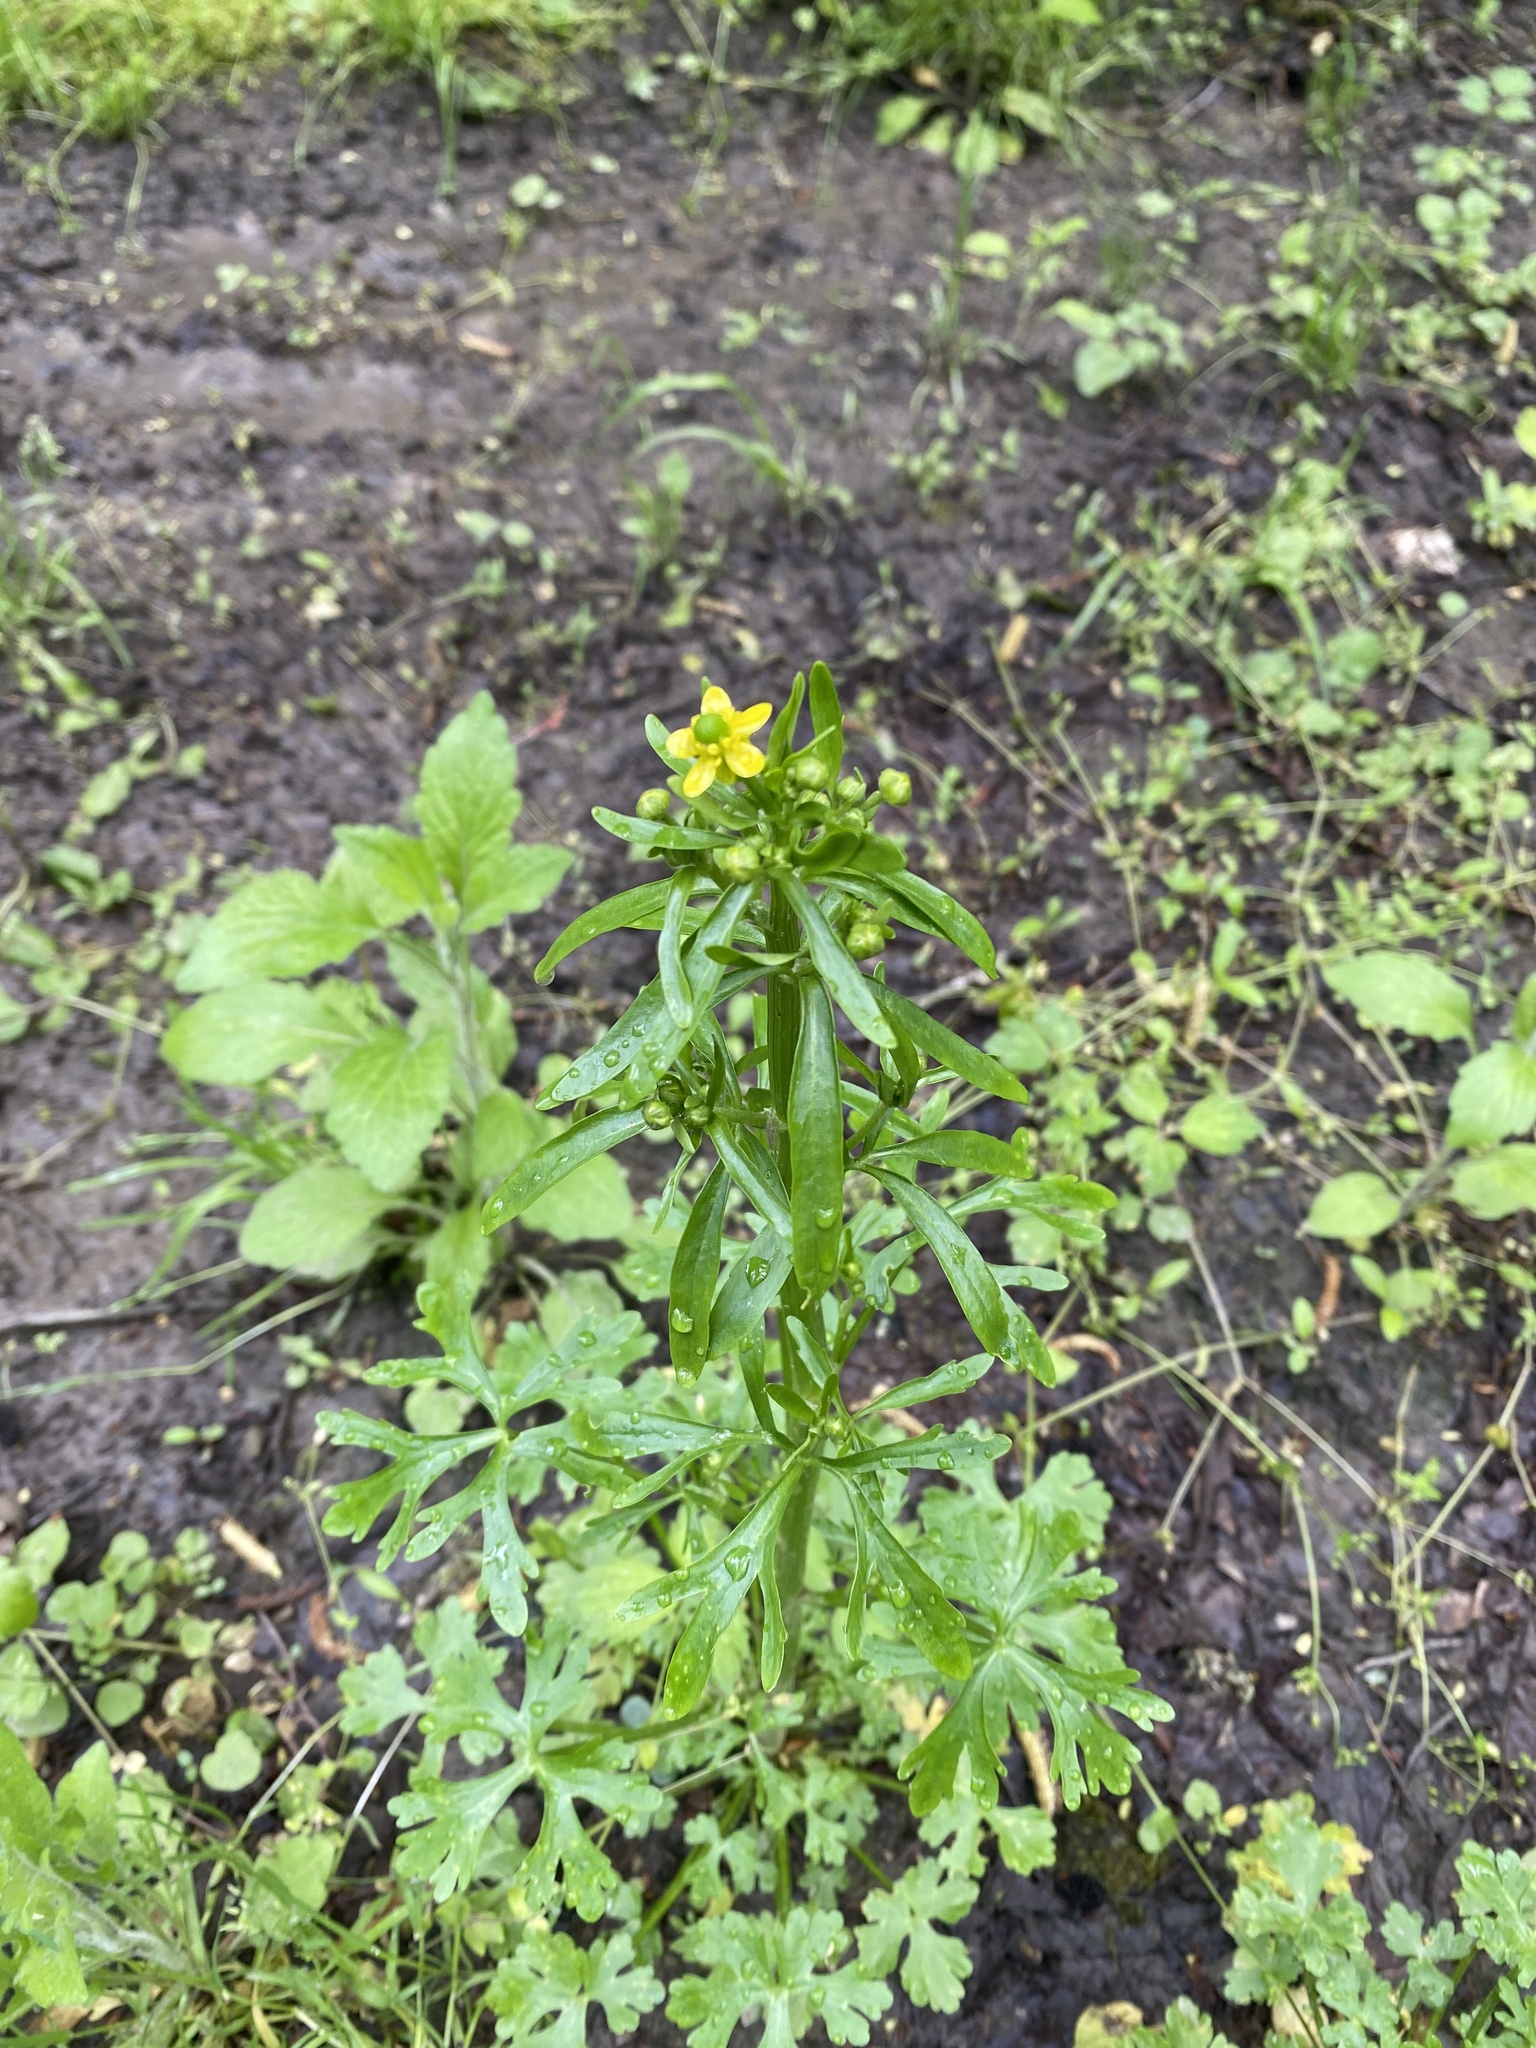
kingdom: Plantae
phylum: Tracheophyta
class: Magnoliopsida
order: Ranunculales
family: Ranunculaceae
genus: Ranunculus
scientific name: Ranunculus sceleratus
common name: Celery-leaved buttercup
